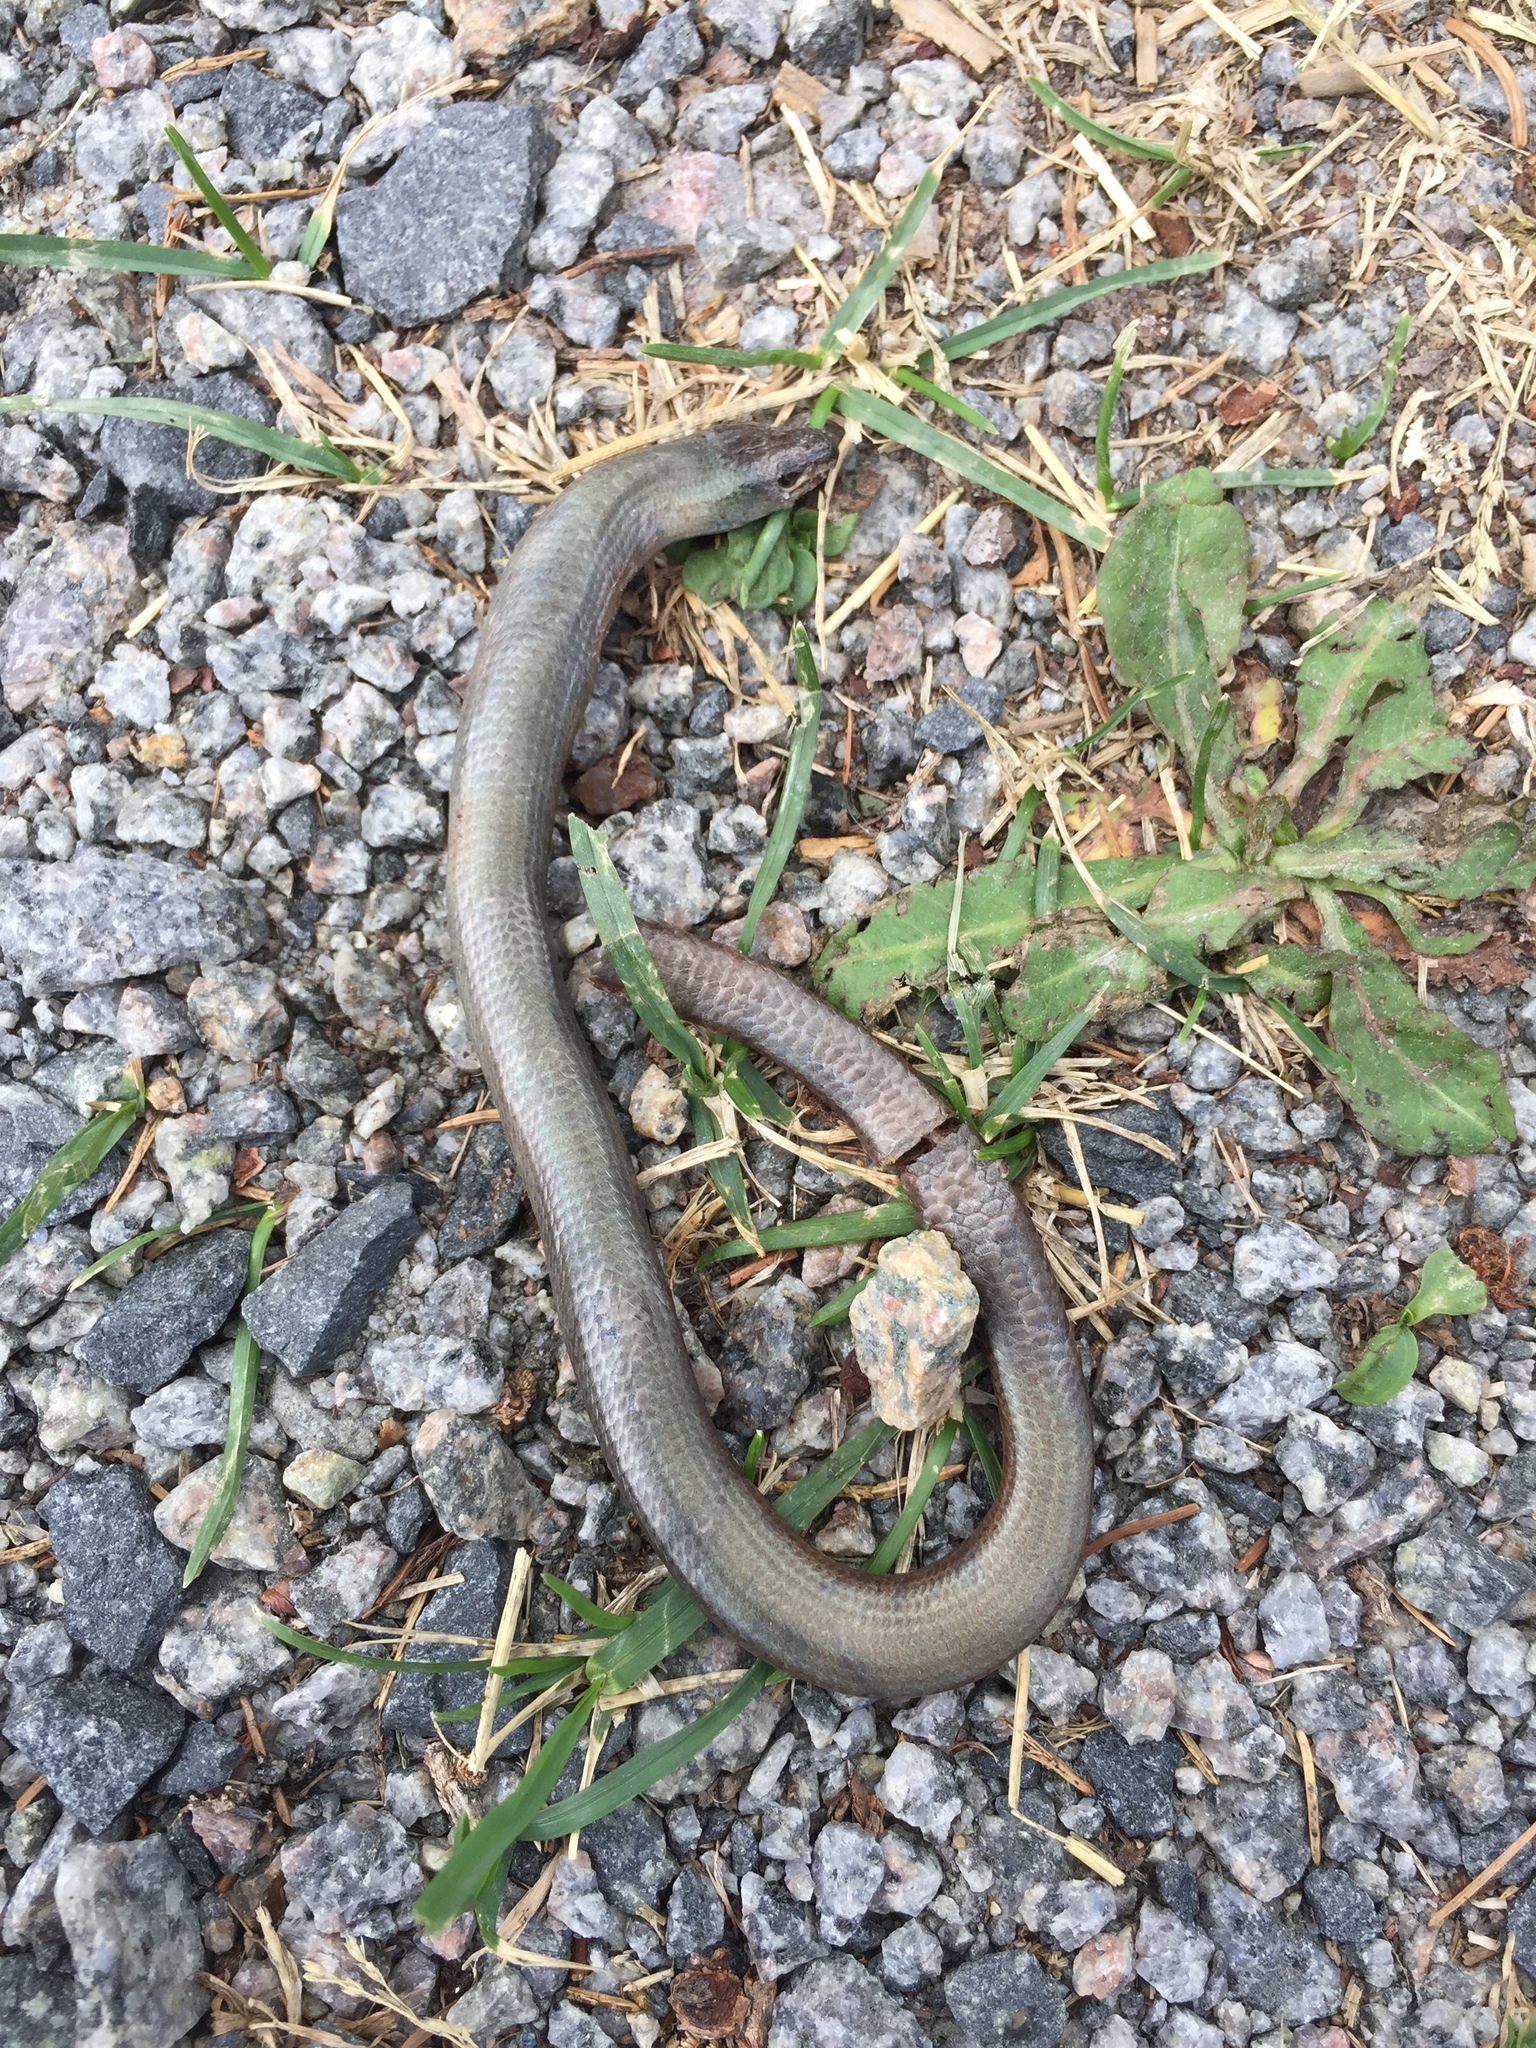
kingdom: Animalia
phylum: Chordata
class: Squamata
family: Anguidae
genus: Anguis
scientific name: Anguis fragilis
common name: Slow worm
